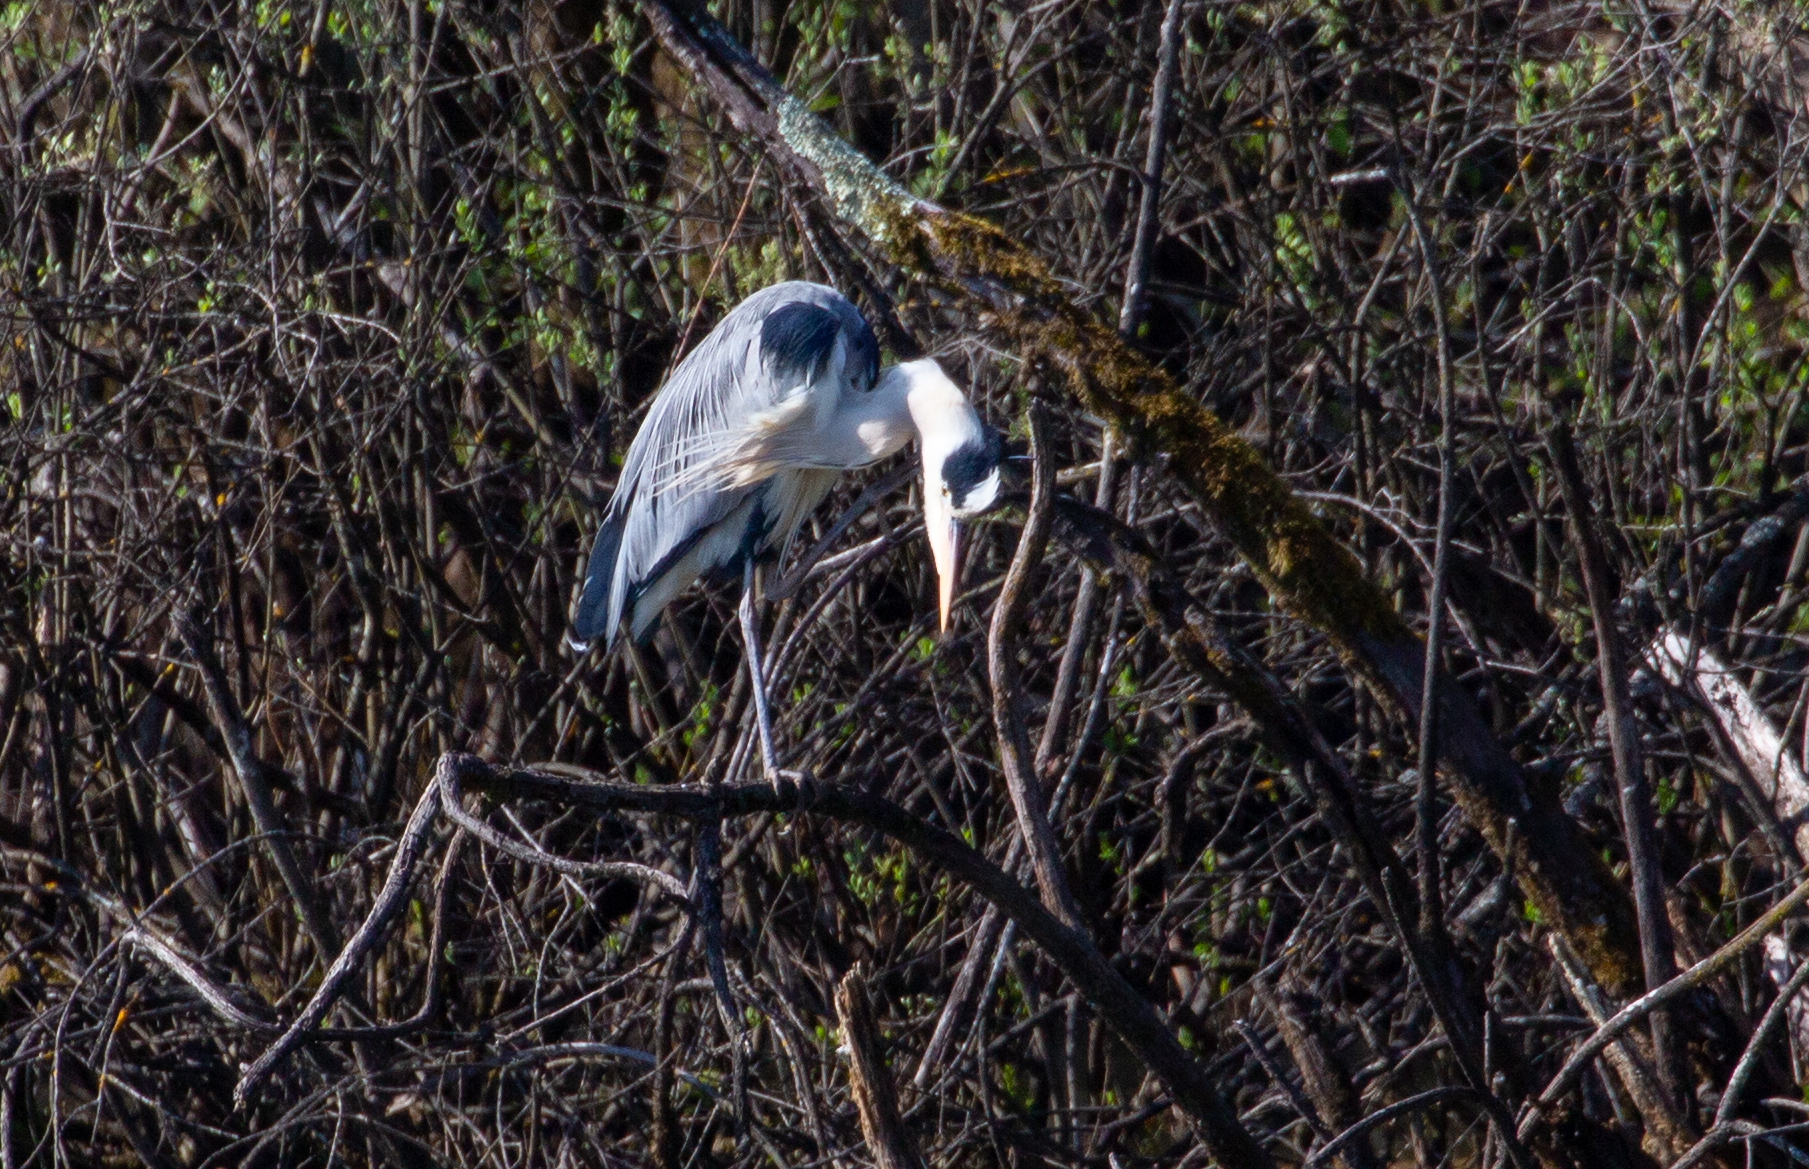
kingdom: Animalia
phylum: Chordata
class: Aves
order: Pelecaniformes
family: Ardeidae
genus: Ardea
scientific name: Ardea cinerea
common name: Grey heron
